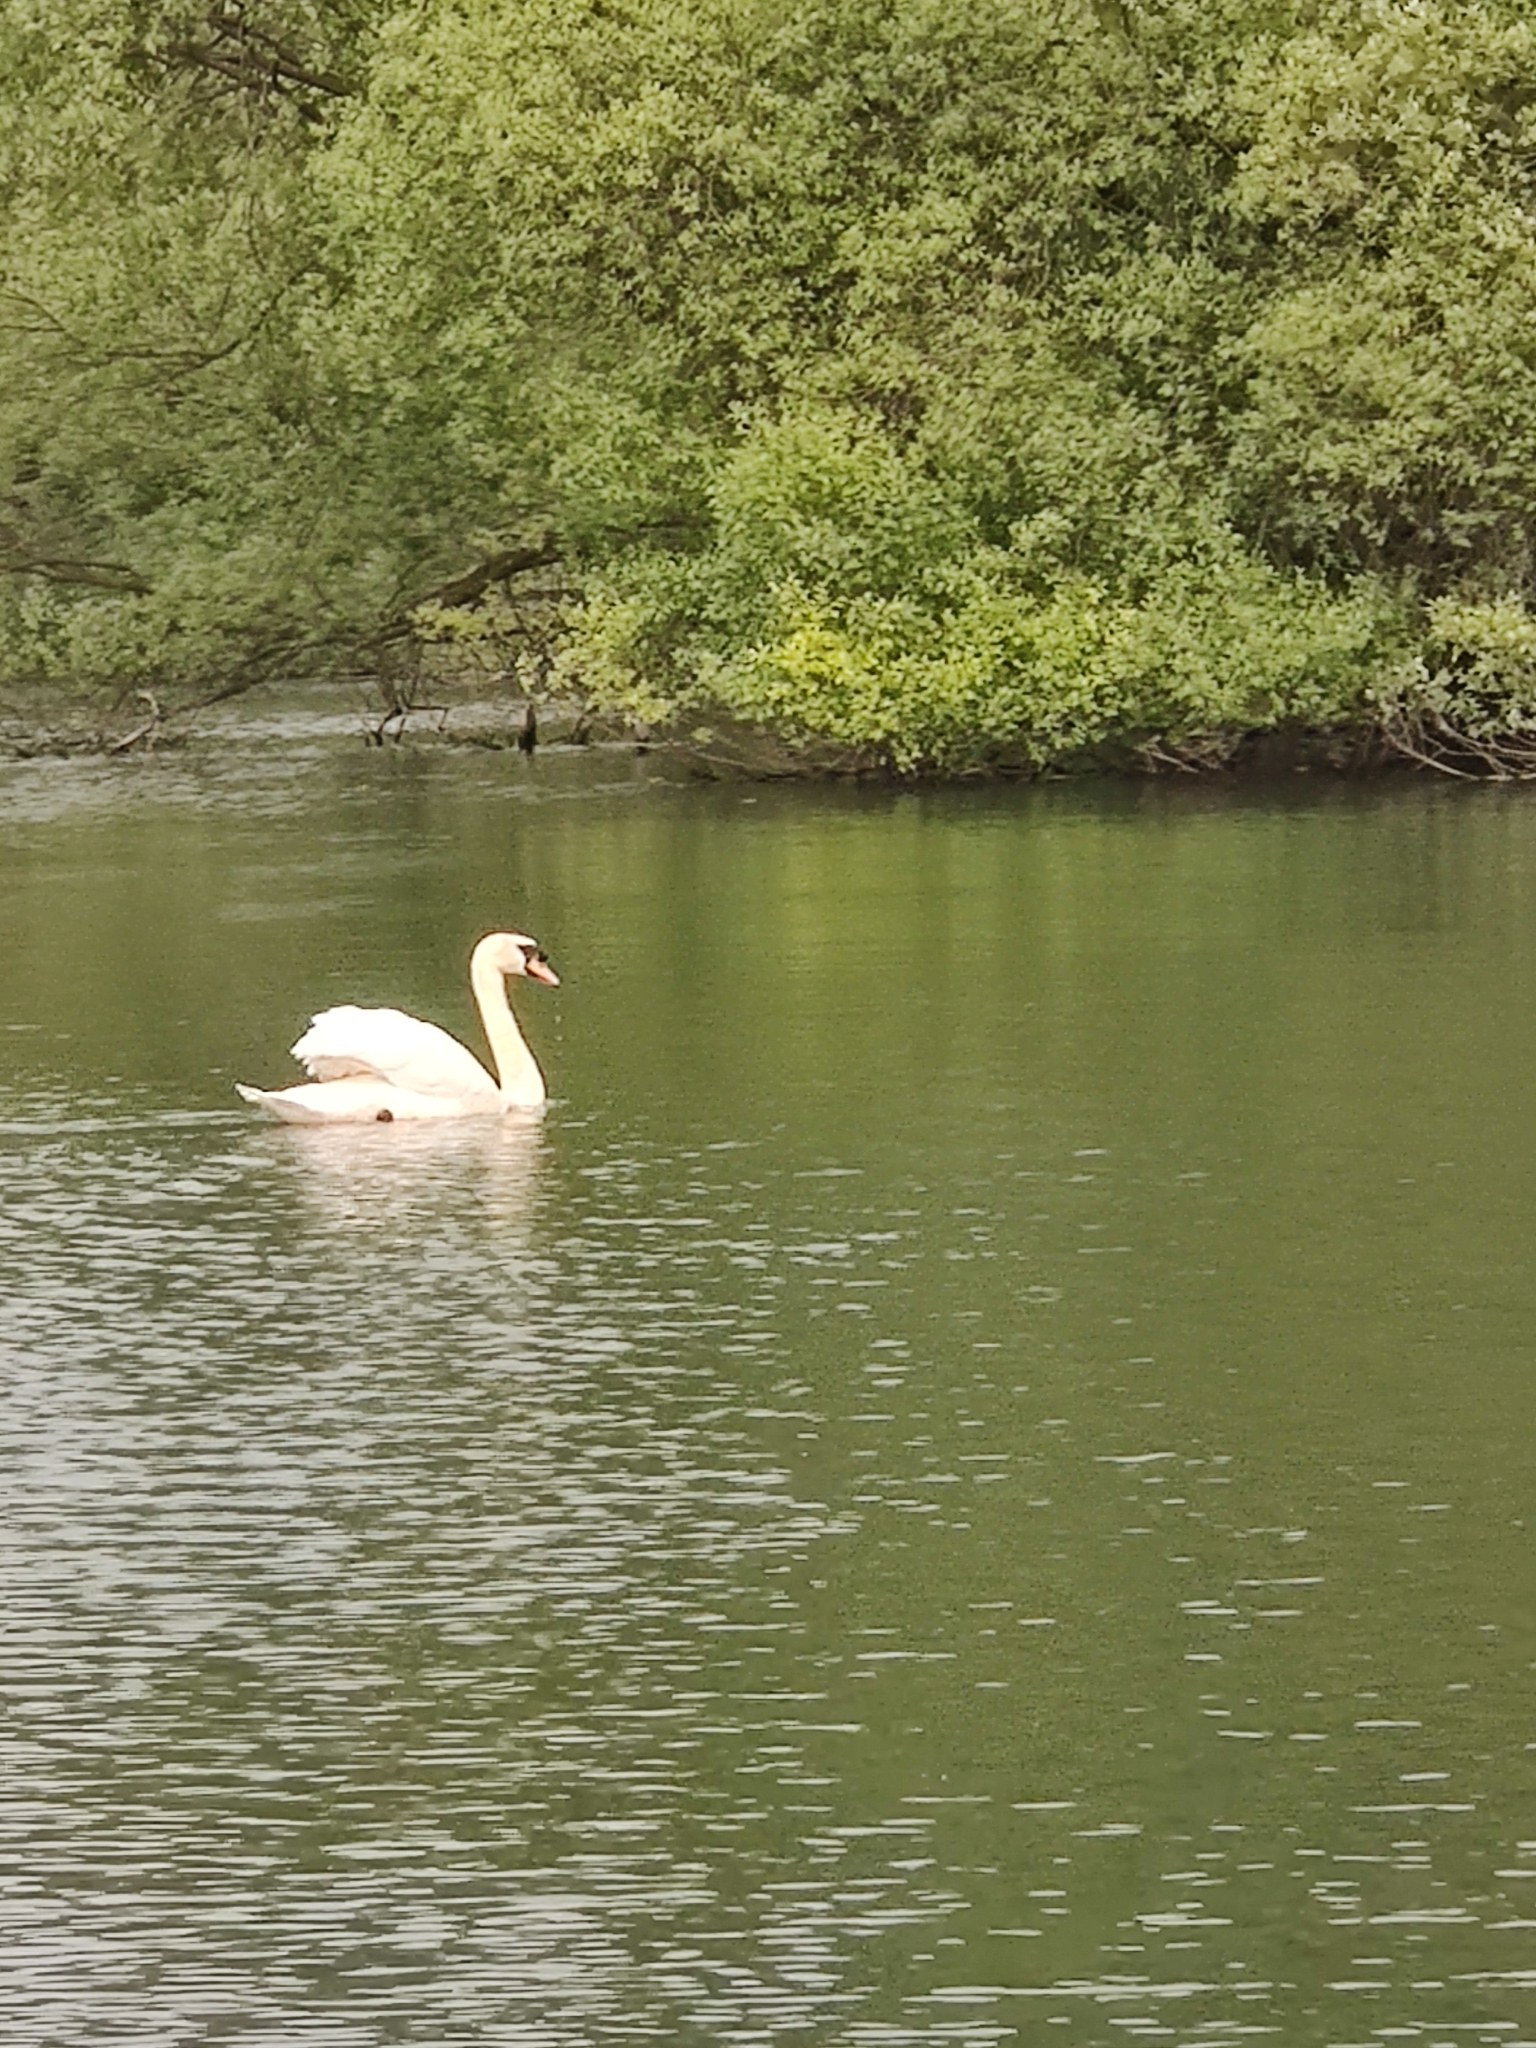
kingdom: Animalia
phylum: Chordata
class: Aves
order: Anseriformes
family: Anatidae
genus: Cygnus
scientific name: Cygnus olor
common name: Mute swan
